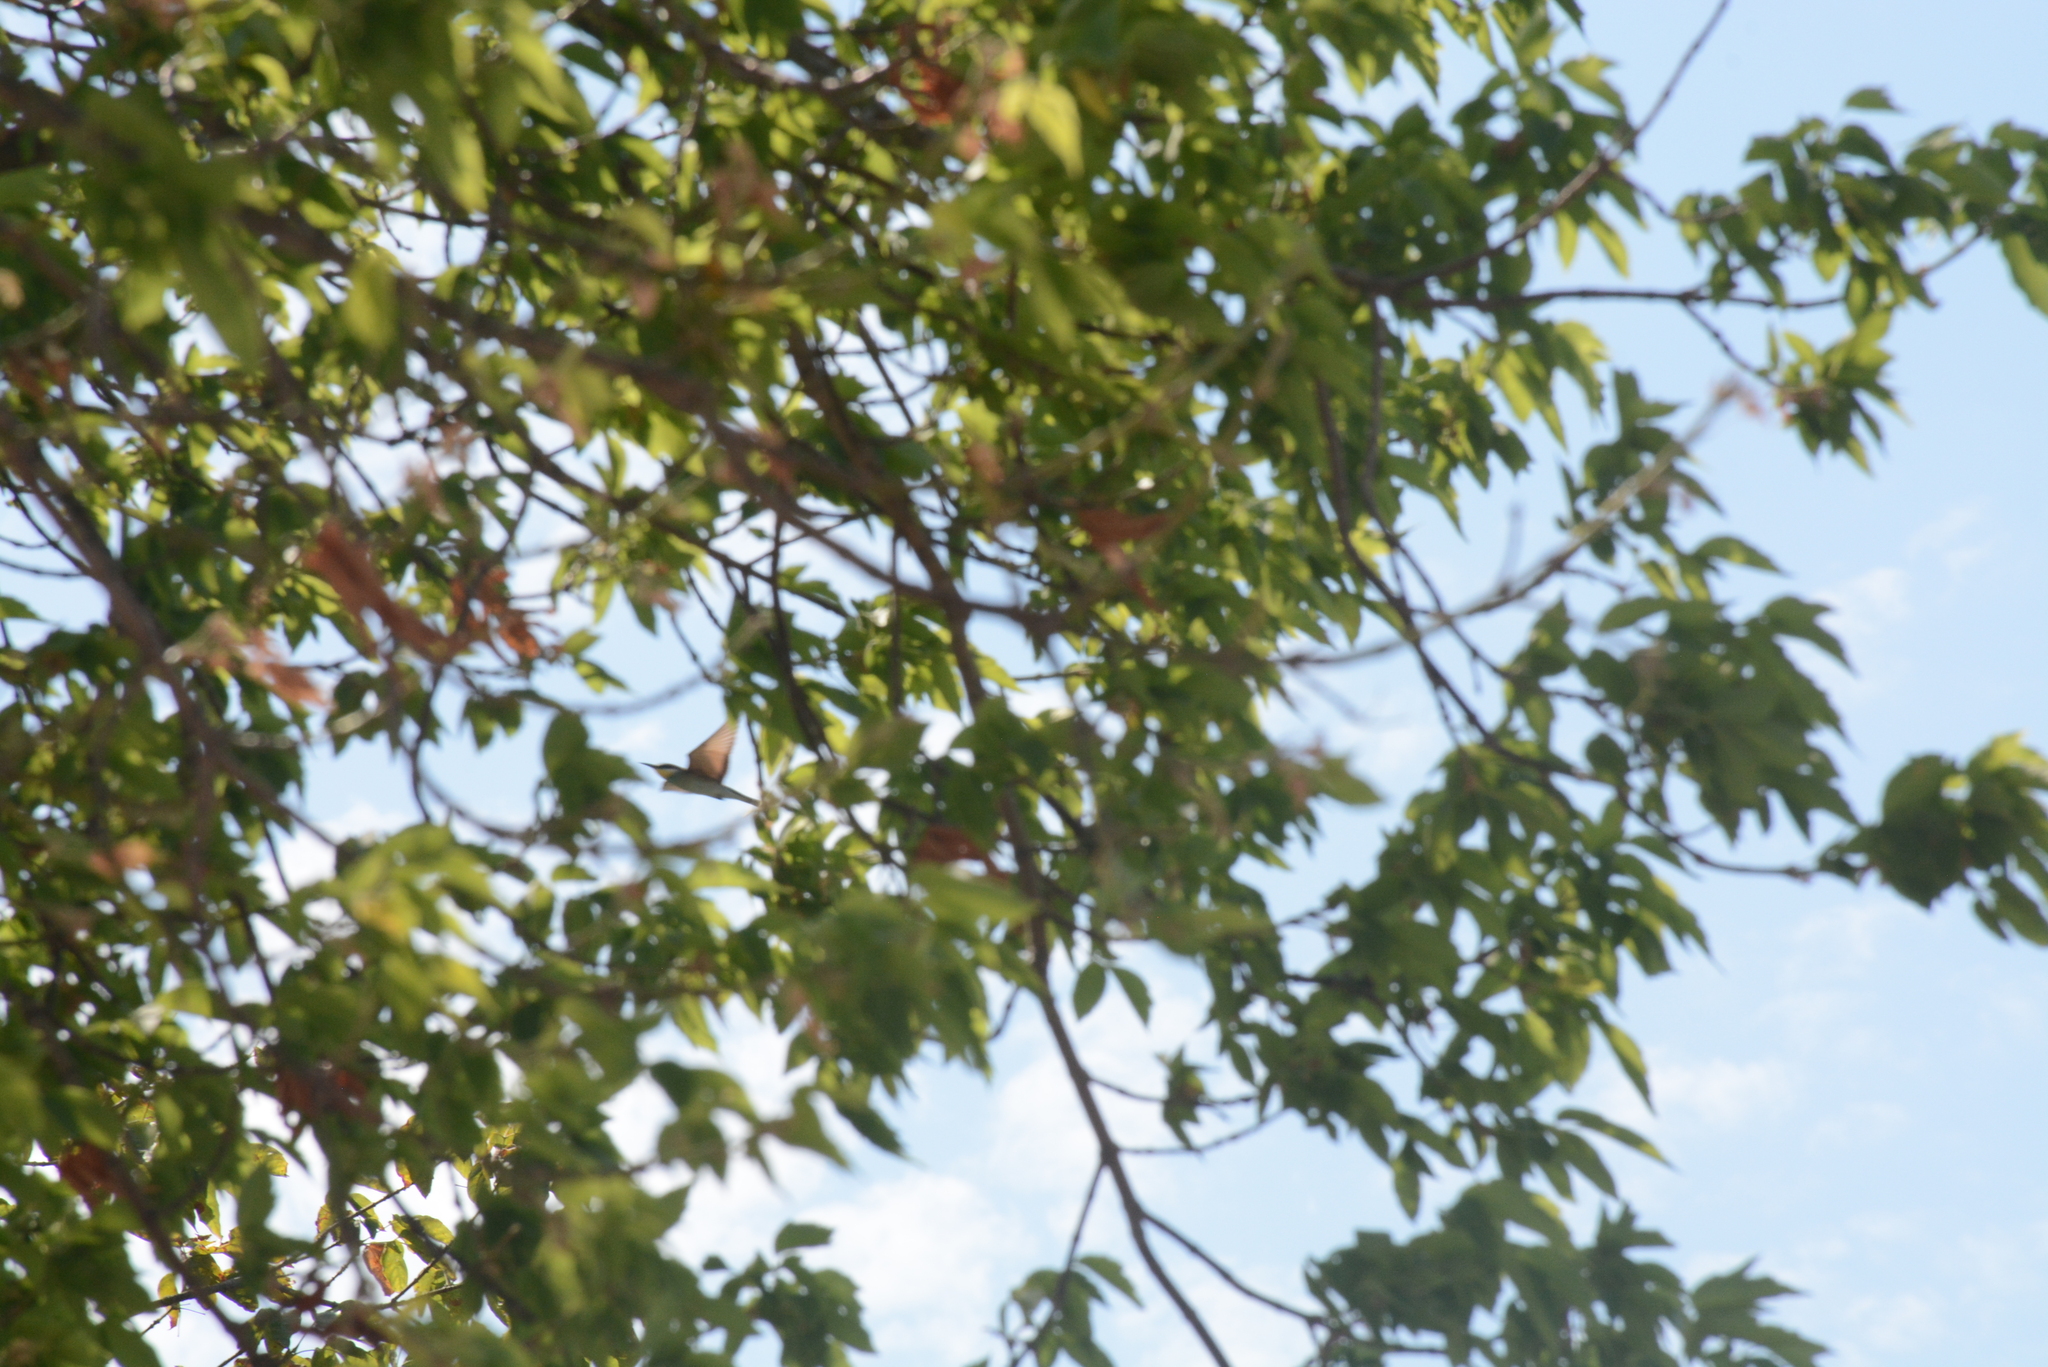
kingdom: Animalia
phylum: Chordata
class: Aves
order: Coraciiformes
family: Meropidae
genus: Merops
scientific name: Merops apiaster
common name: European bee-eater
